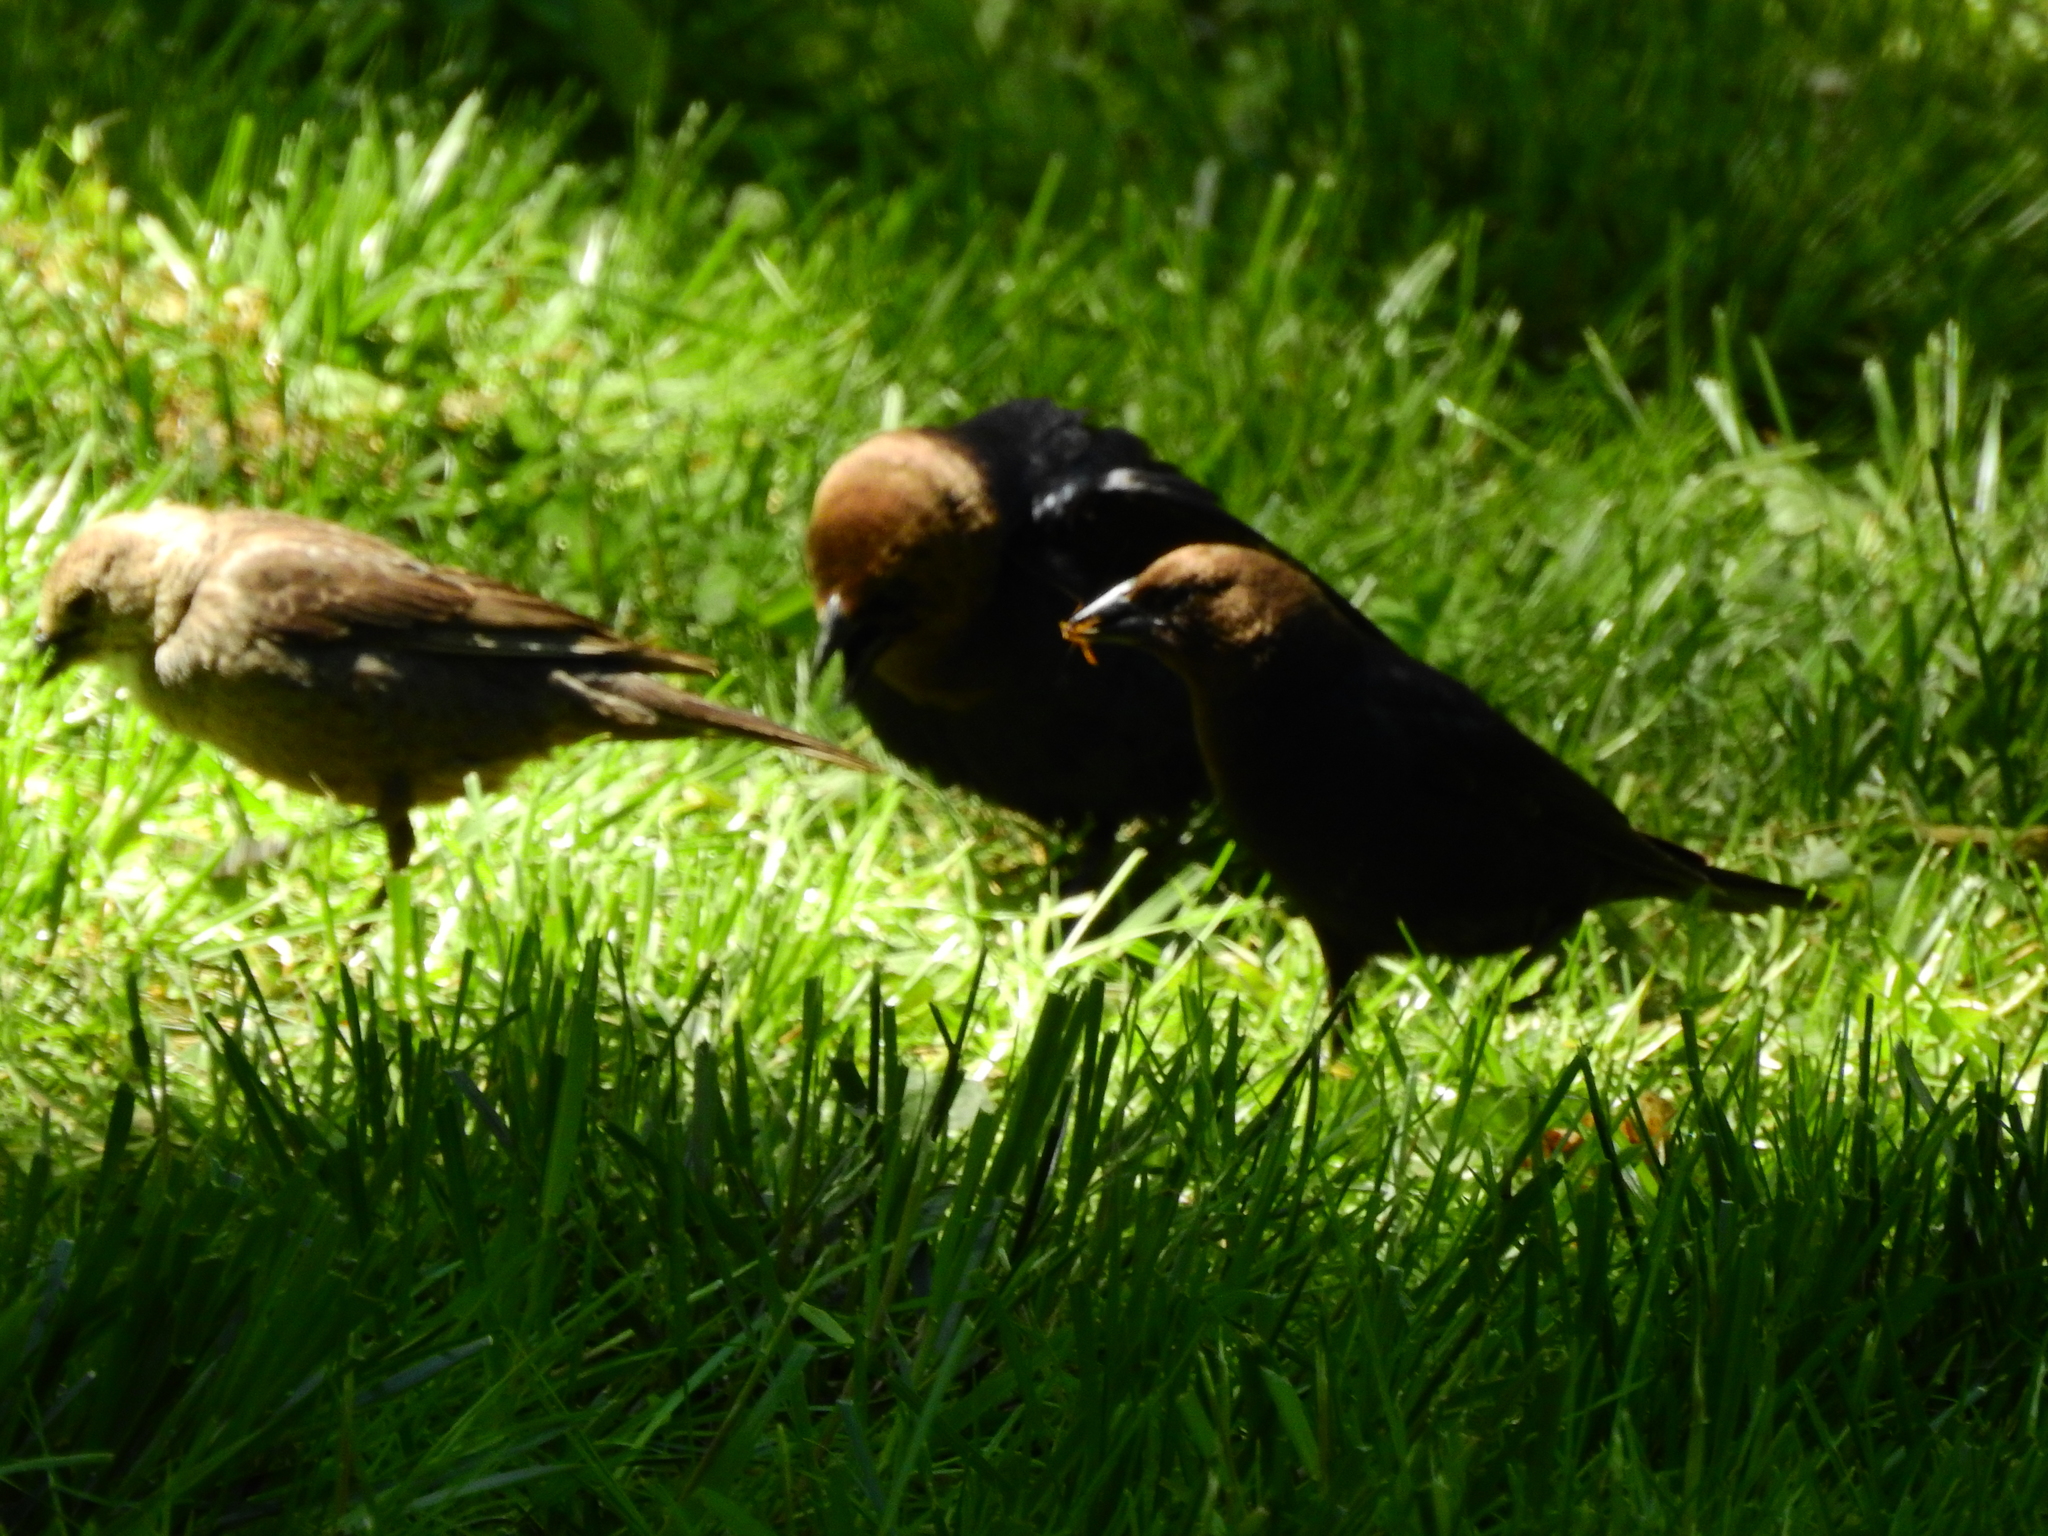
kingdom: Animalia
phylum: Chordata
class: Aves
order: Passeriformes
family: Icteridae
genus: Molothrus
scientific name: Molothrus ater
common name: Brown-headed cowbird
